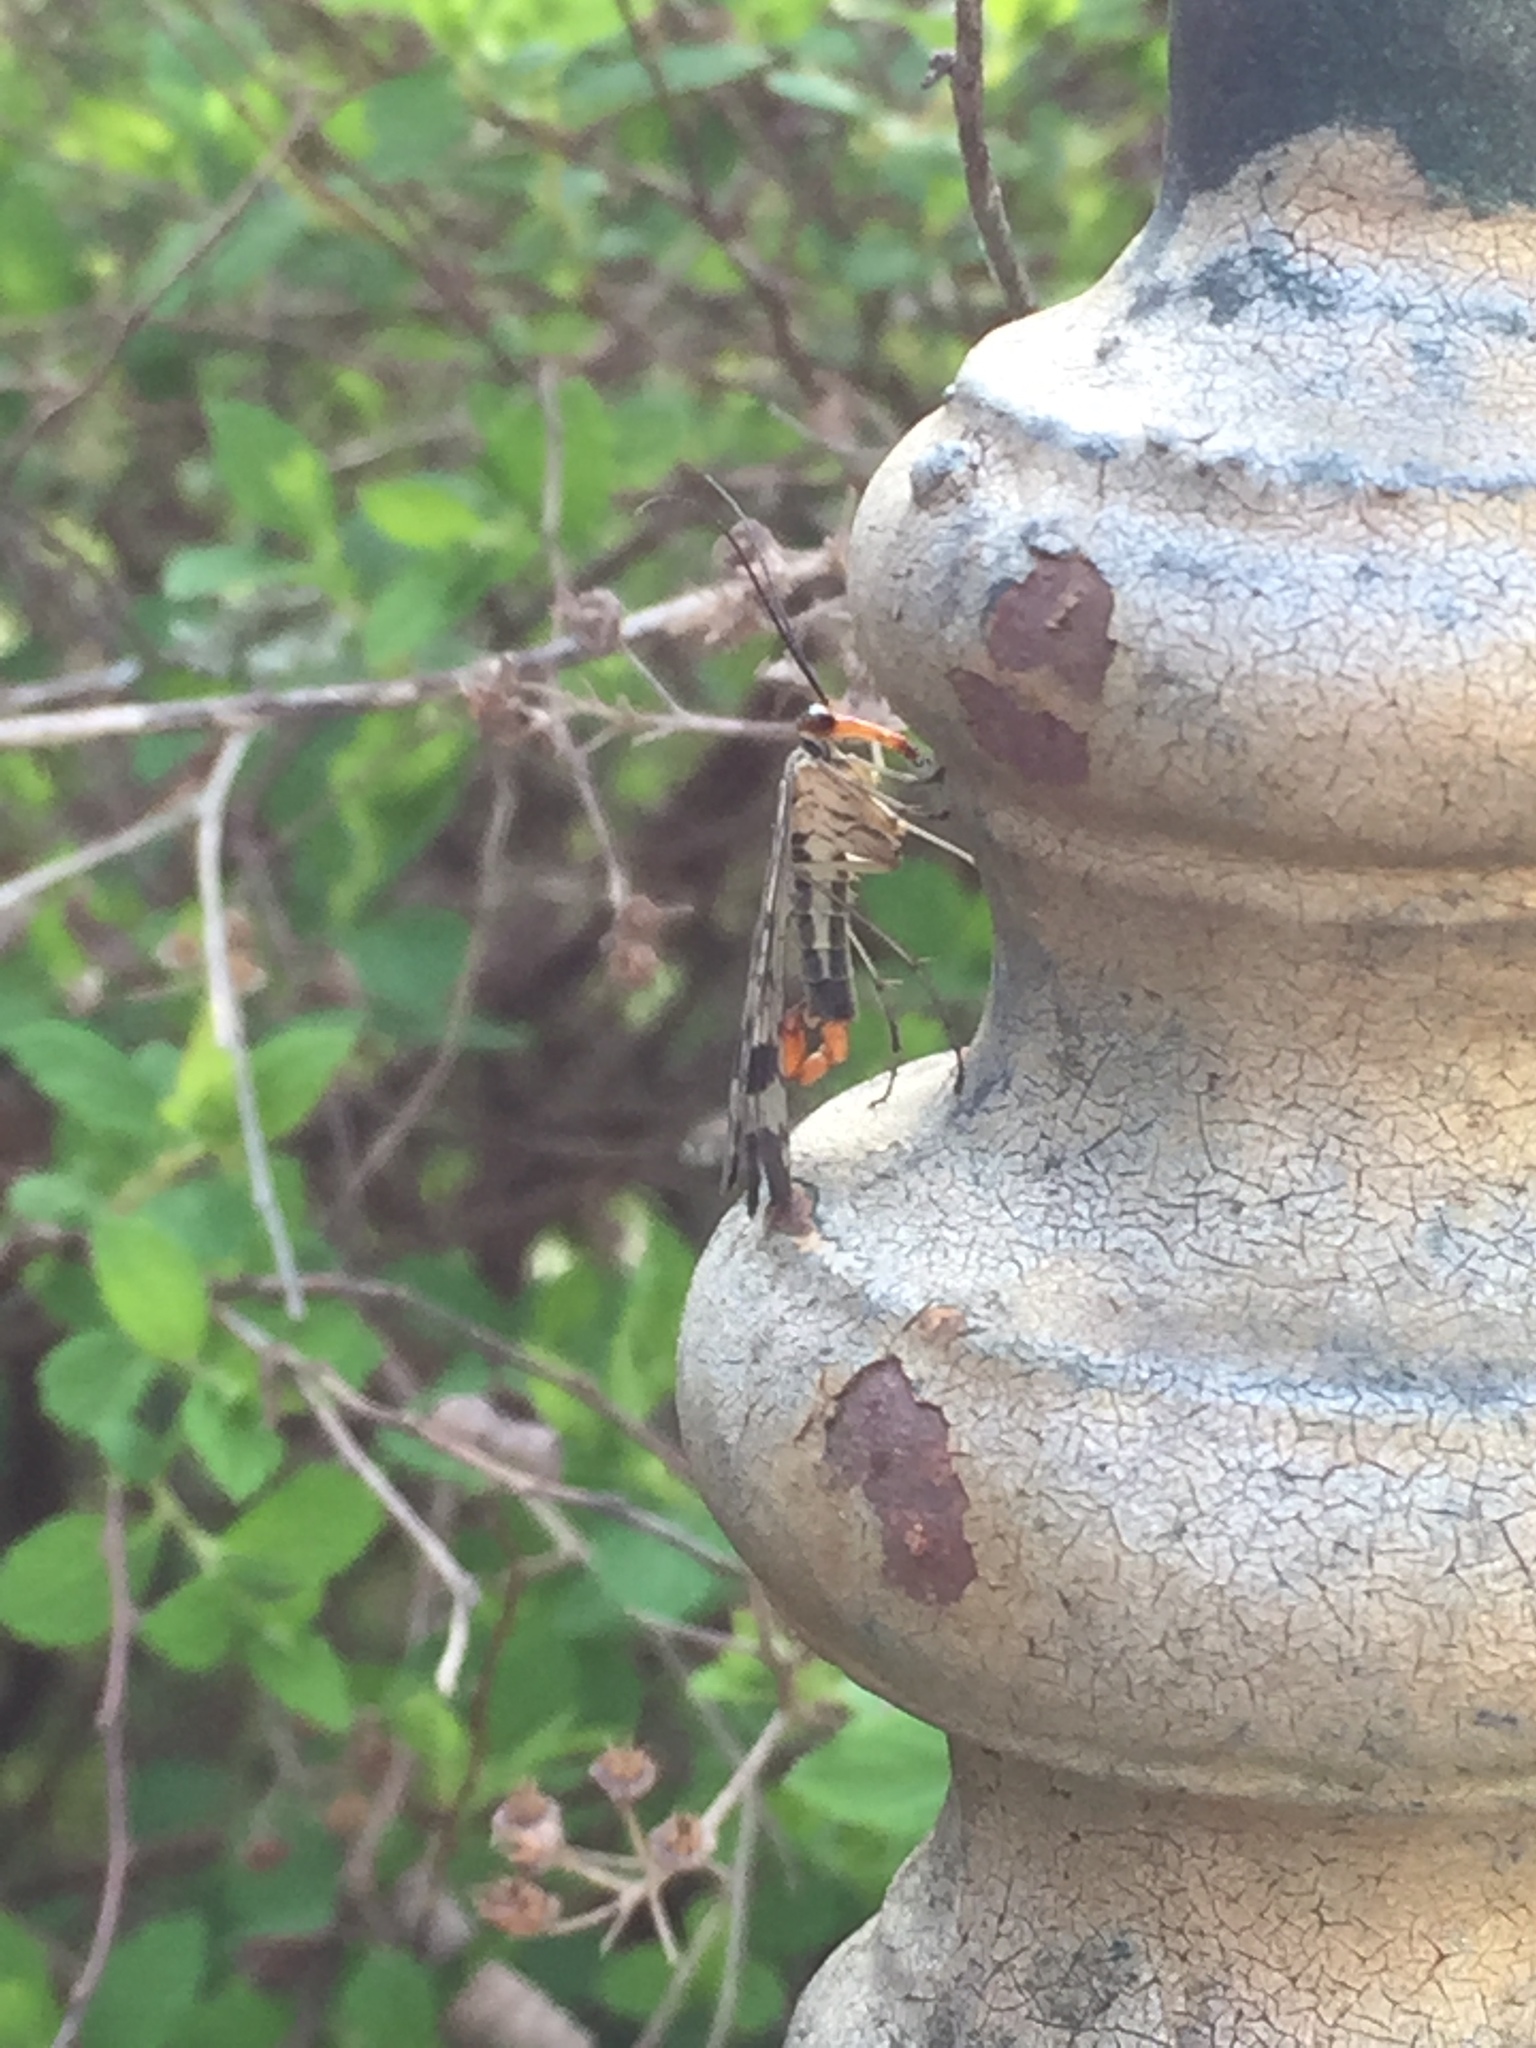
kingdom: Animalia
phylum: Arthropoda
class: Insecta
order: Mecoptera
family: Panorpidae
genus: Panorpa
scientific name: Panorpa communis
